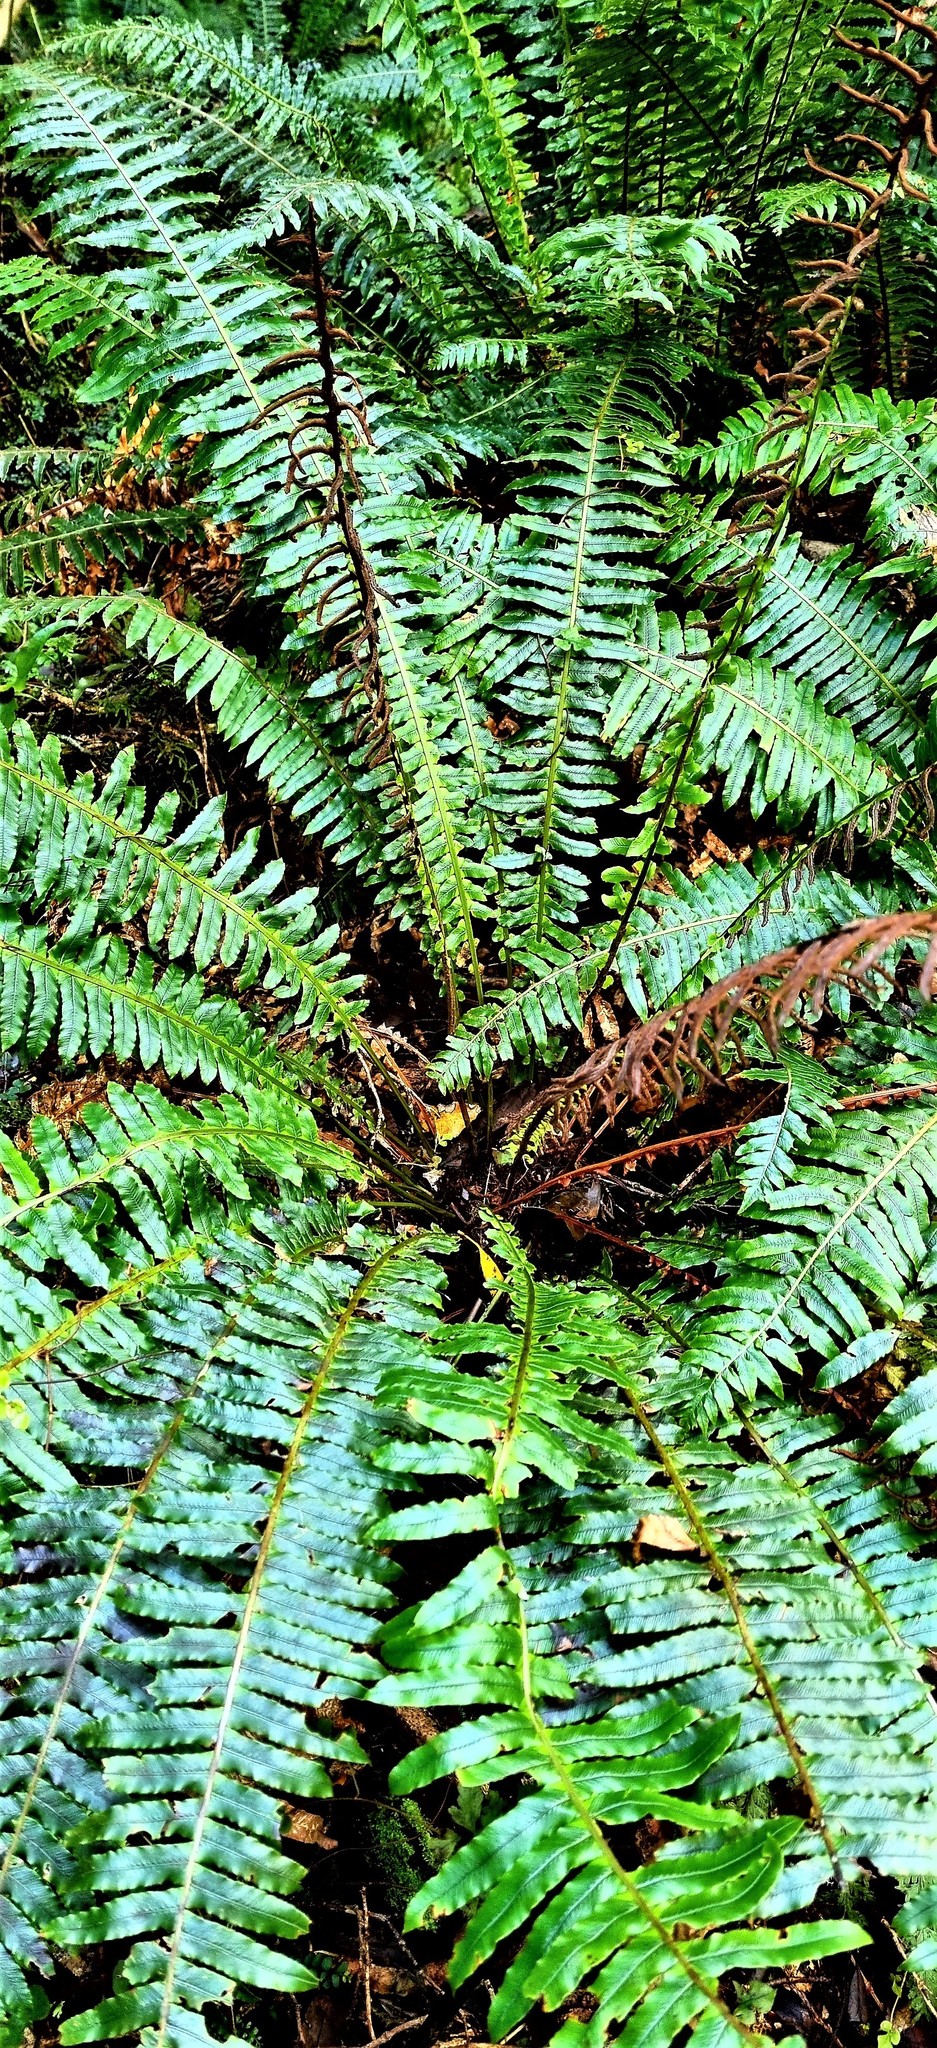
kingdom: Plantae
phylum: Tracheophyta
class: Polypodiopsida
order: Polypodiales
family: Blechnaceae
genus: Lomaria
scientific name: Lomaria discolor
